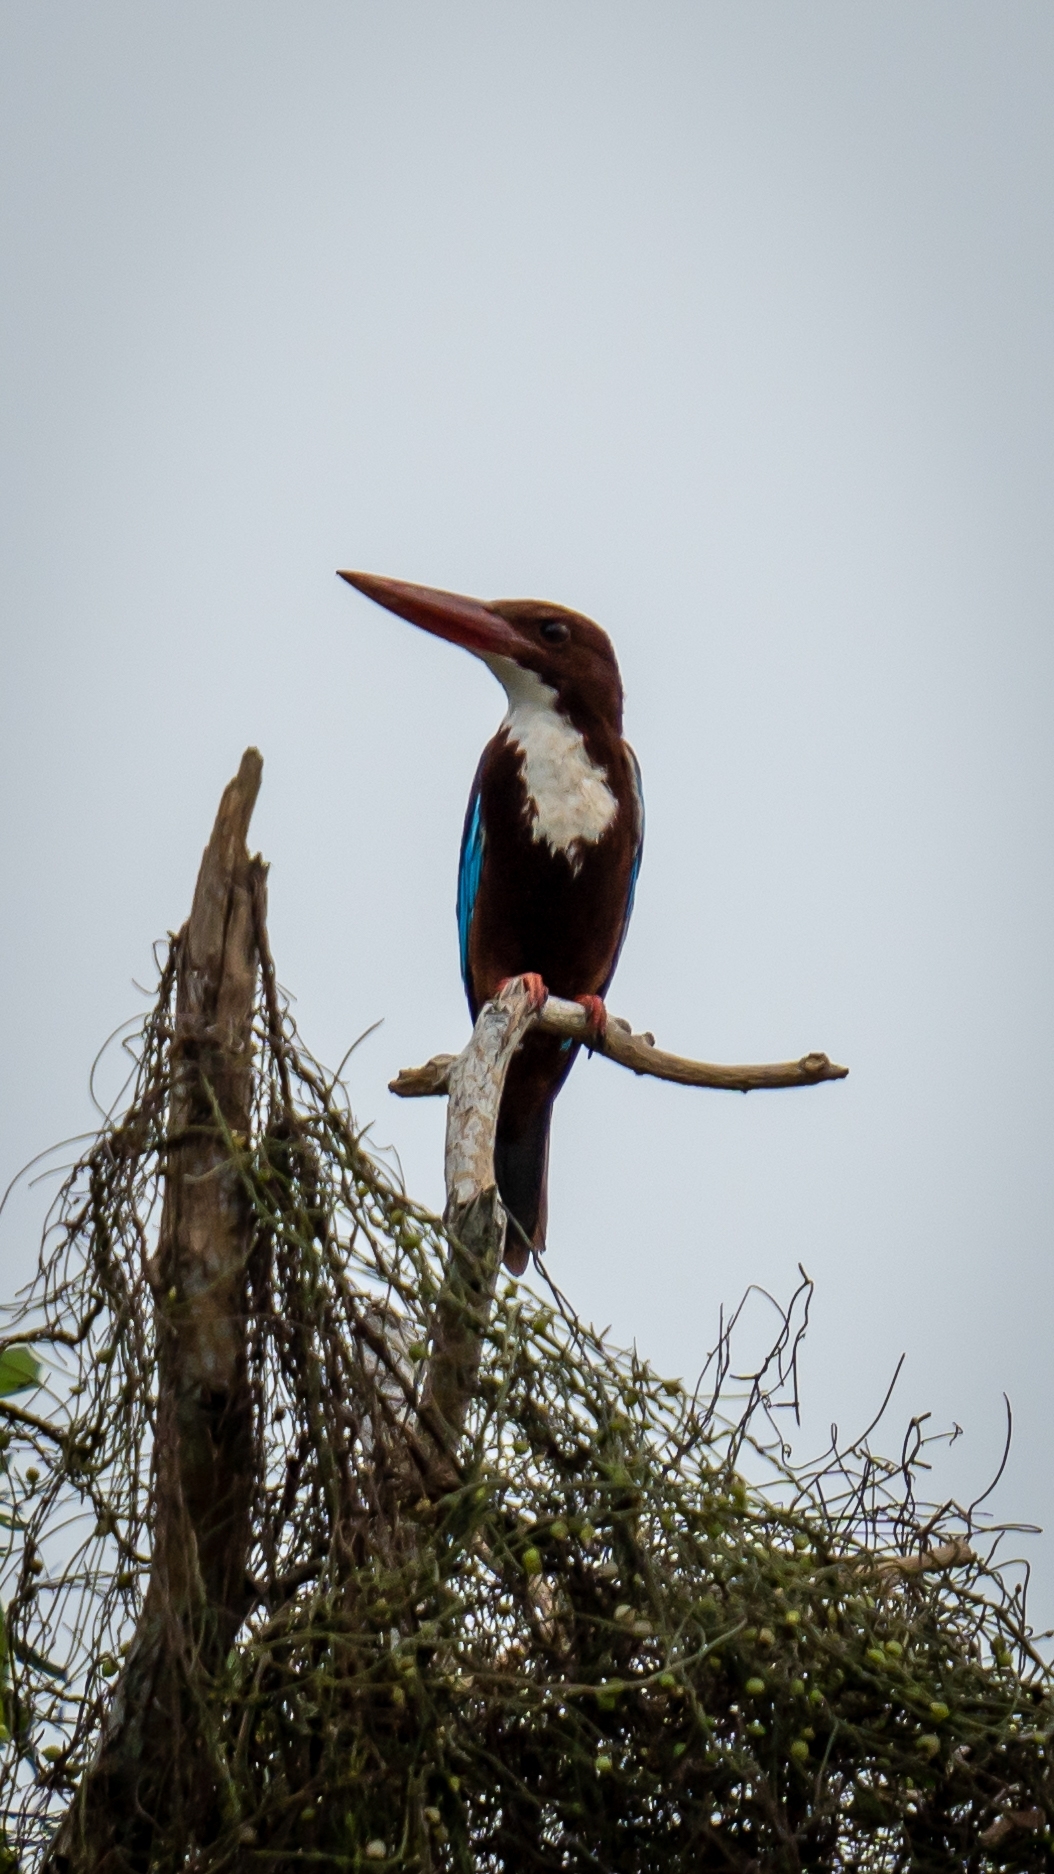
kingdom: Animalia
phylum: Chordata
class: Aves
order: Coraciiformes
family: Alcedinidae
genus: Halcyon
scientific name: Halcyon smyrnensis
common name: White-throated kingfisher
